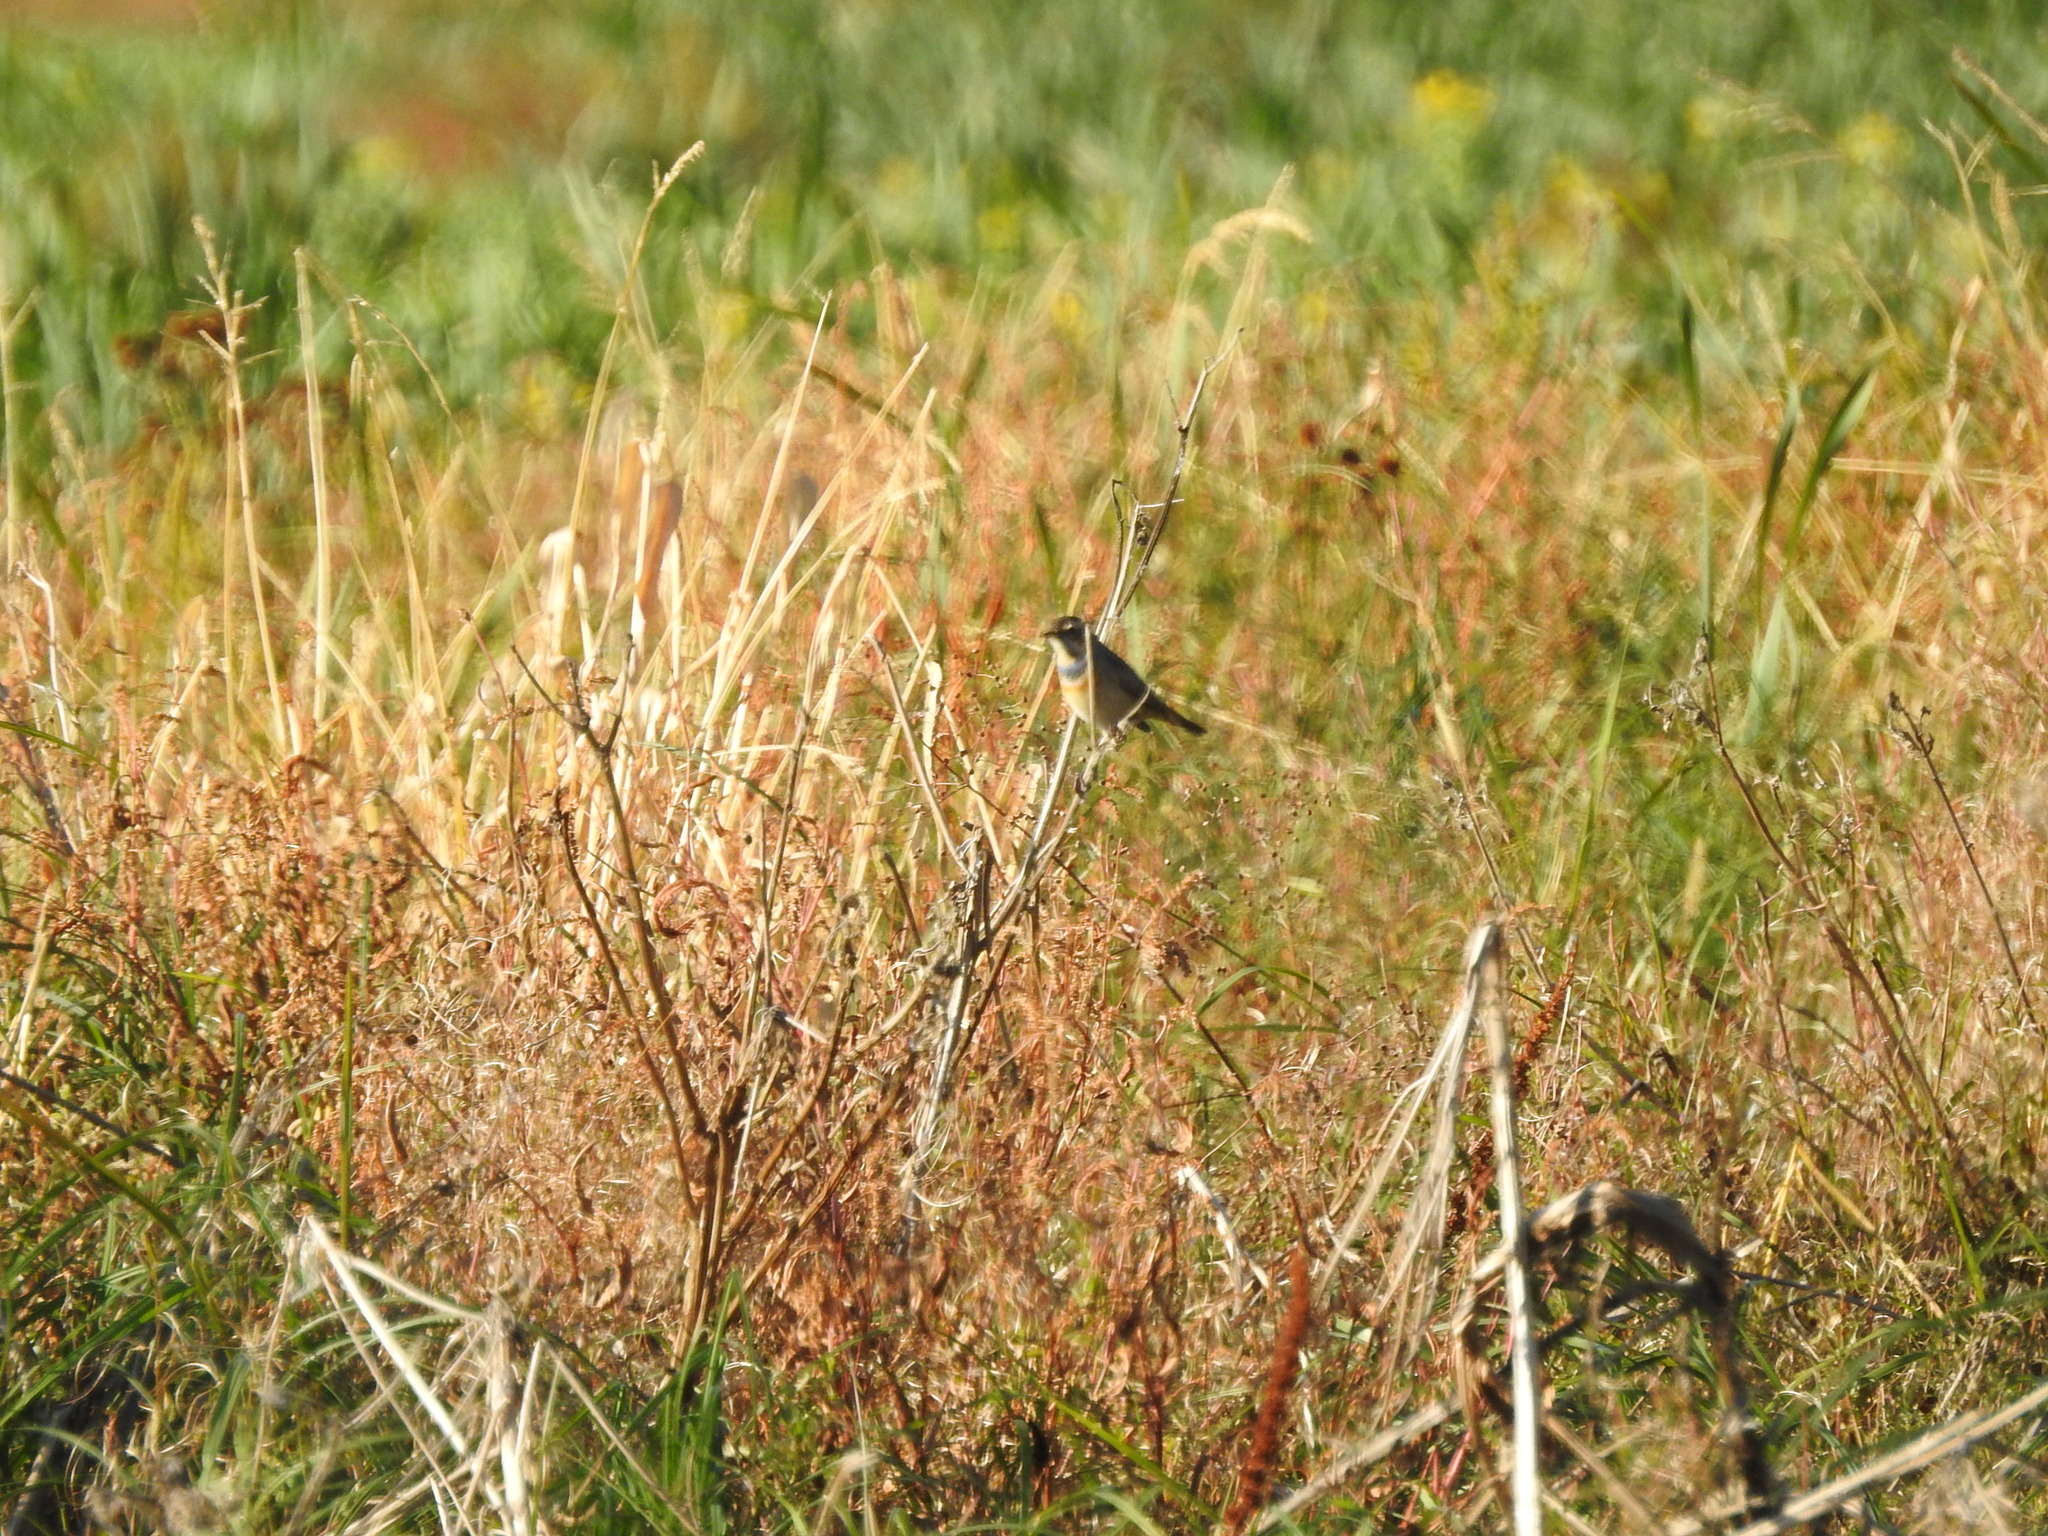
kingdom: Animalia
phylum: Chordata
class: Aves
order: Passeriformes
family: Muscicapidae
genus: Luscinia
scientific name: Luscinia svecica
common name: Bluethroat
